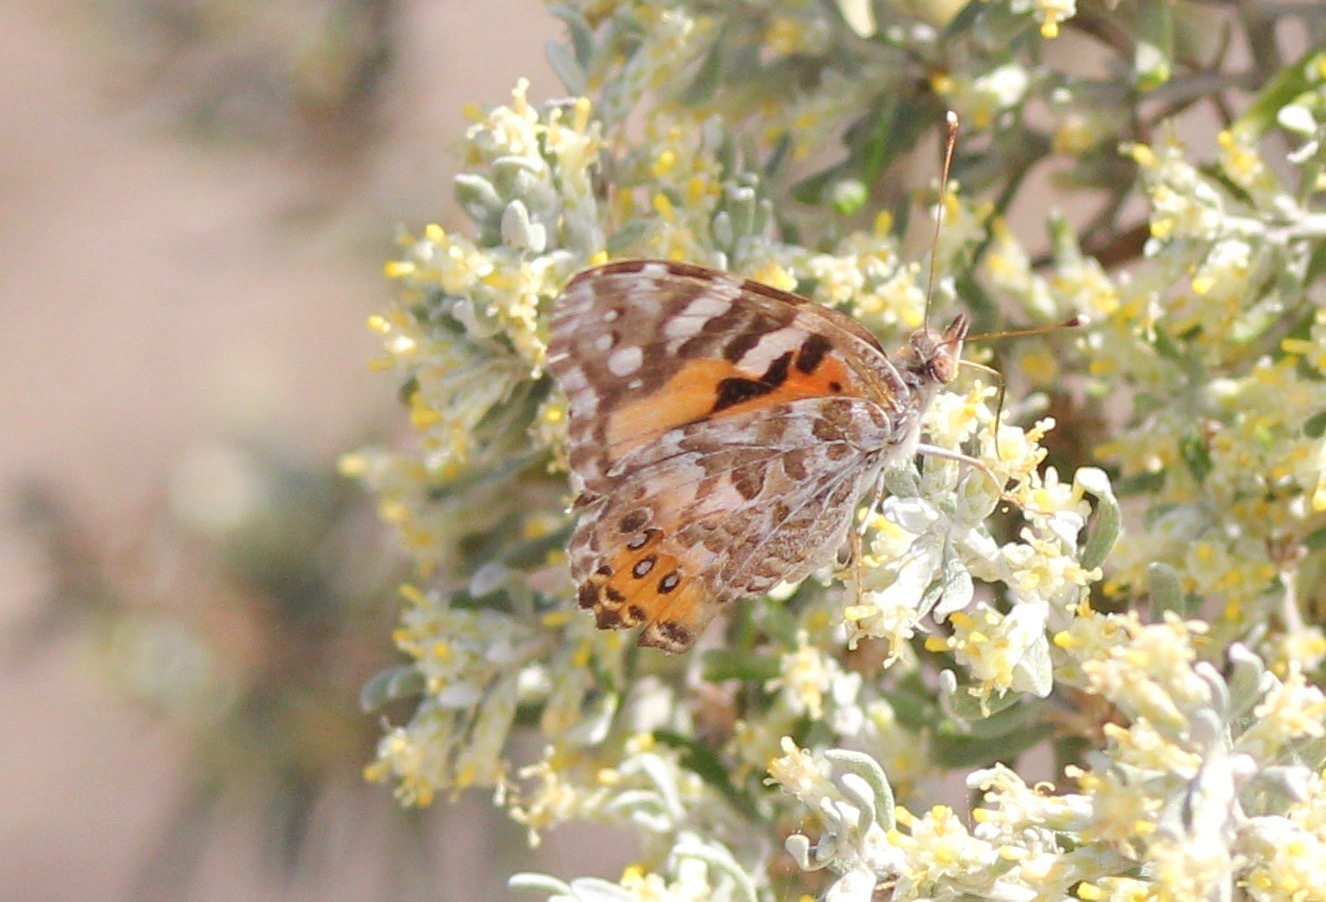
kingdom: Animalia
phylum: Arthropoda
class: Insecta
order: Lepidoptera
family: Nymphalidae
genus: Vanessa
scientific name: Vanessa kershawi
